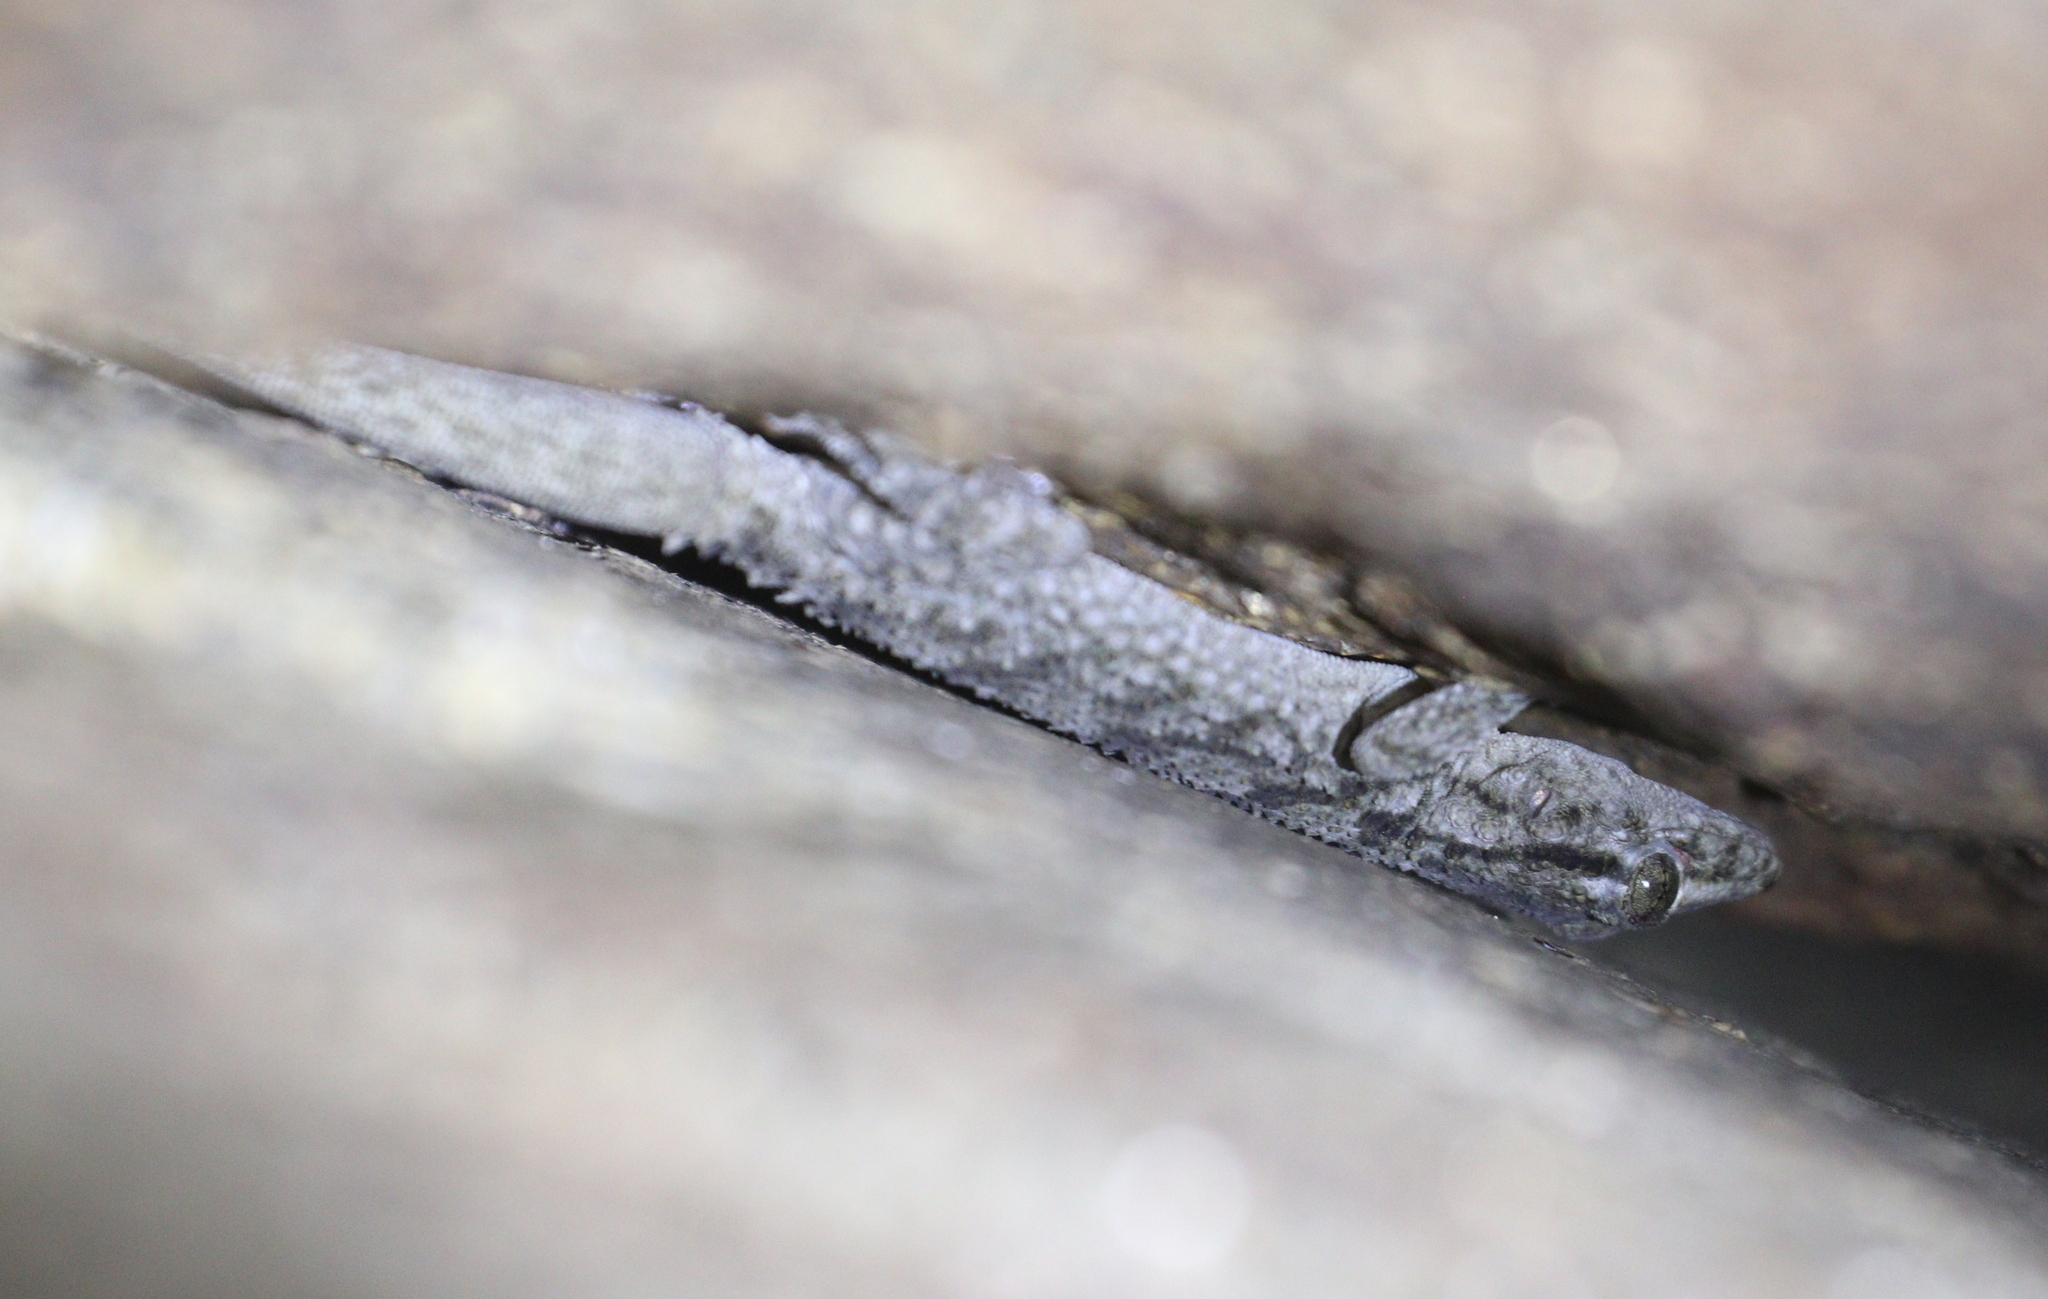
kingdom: Animalia
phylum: Chordata
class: Squamata
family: Phyllodactylidae
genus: Tarentola
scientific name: Tarentola mauritanica
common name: Moorish gecko
